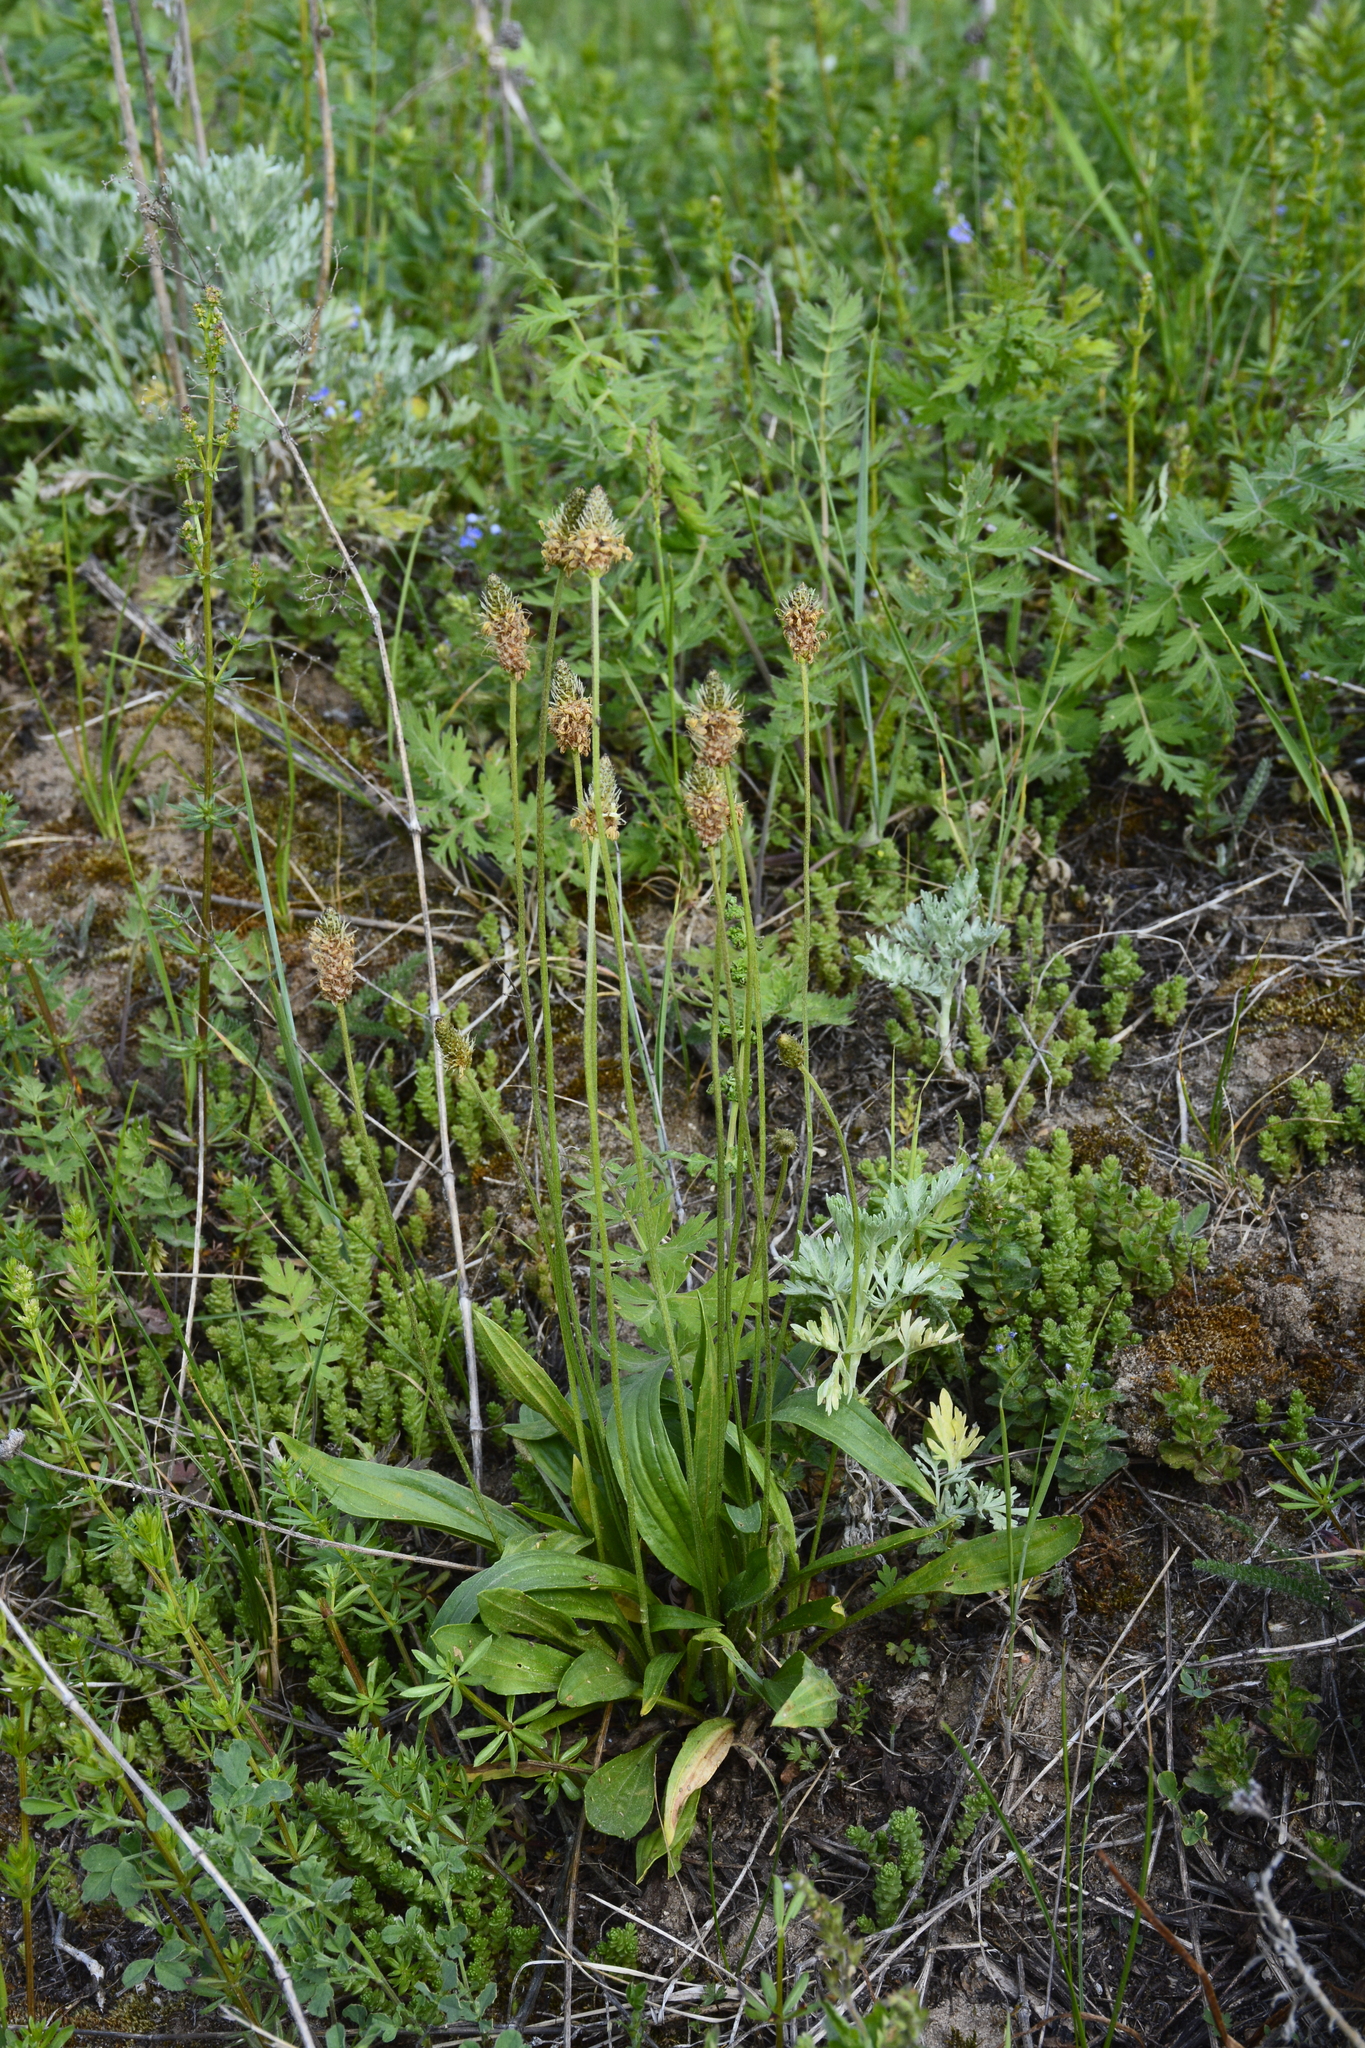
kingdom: Plantae
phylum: Tracheophyta
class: Magnoliopsida
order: Lamiales
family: Plantaginaceae
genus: Plantago
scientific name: Plantago lanceolata
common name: Ribwort plantain
